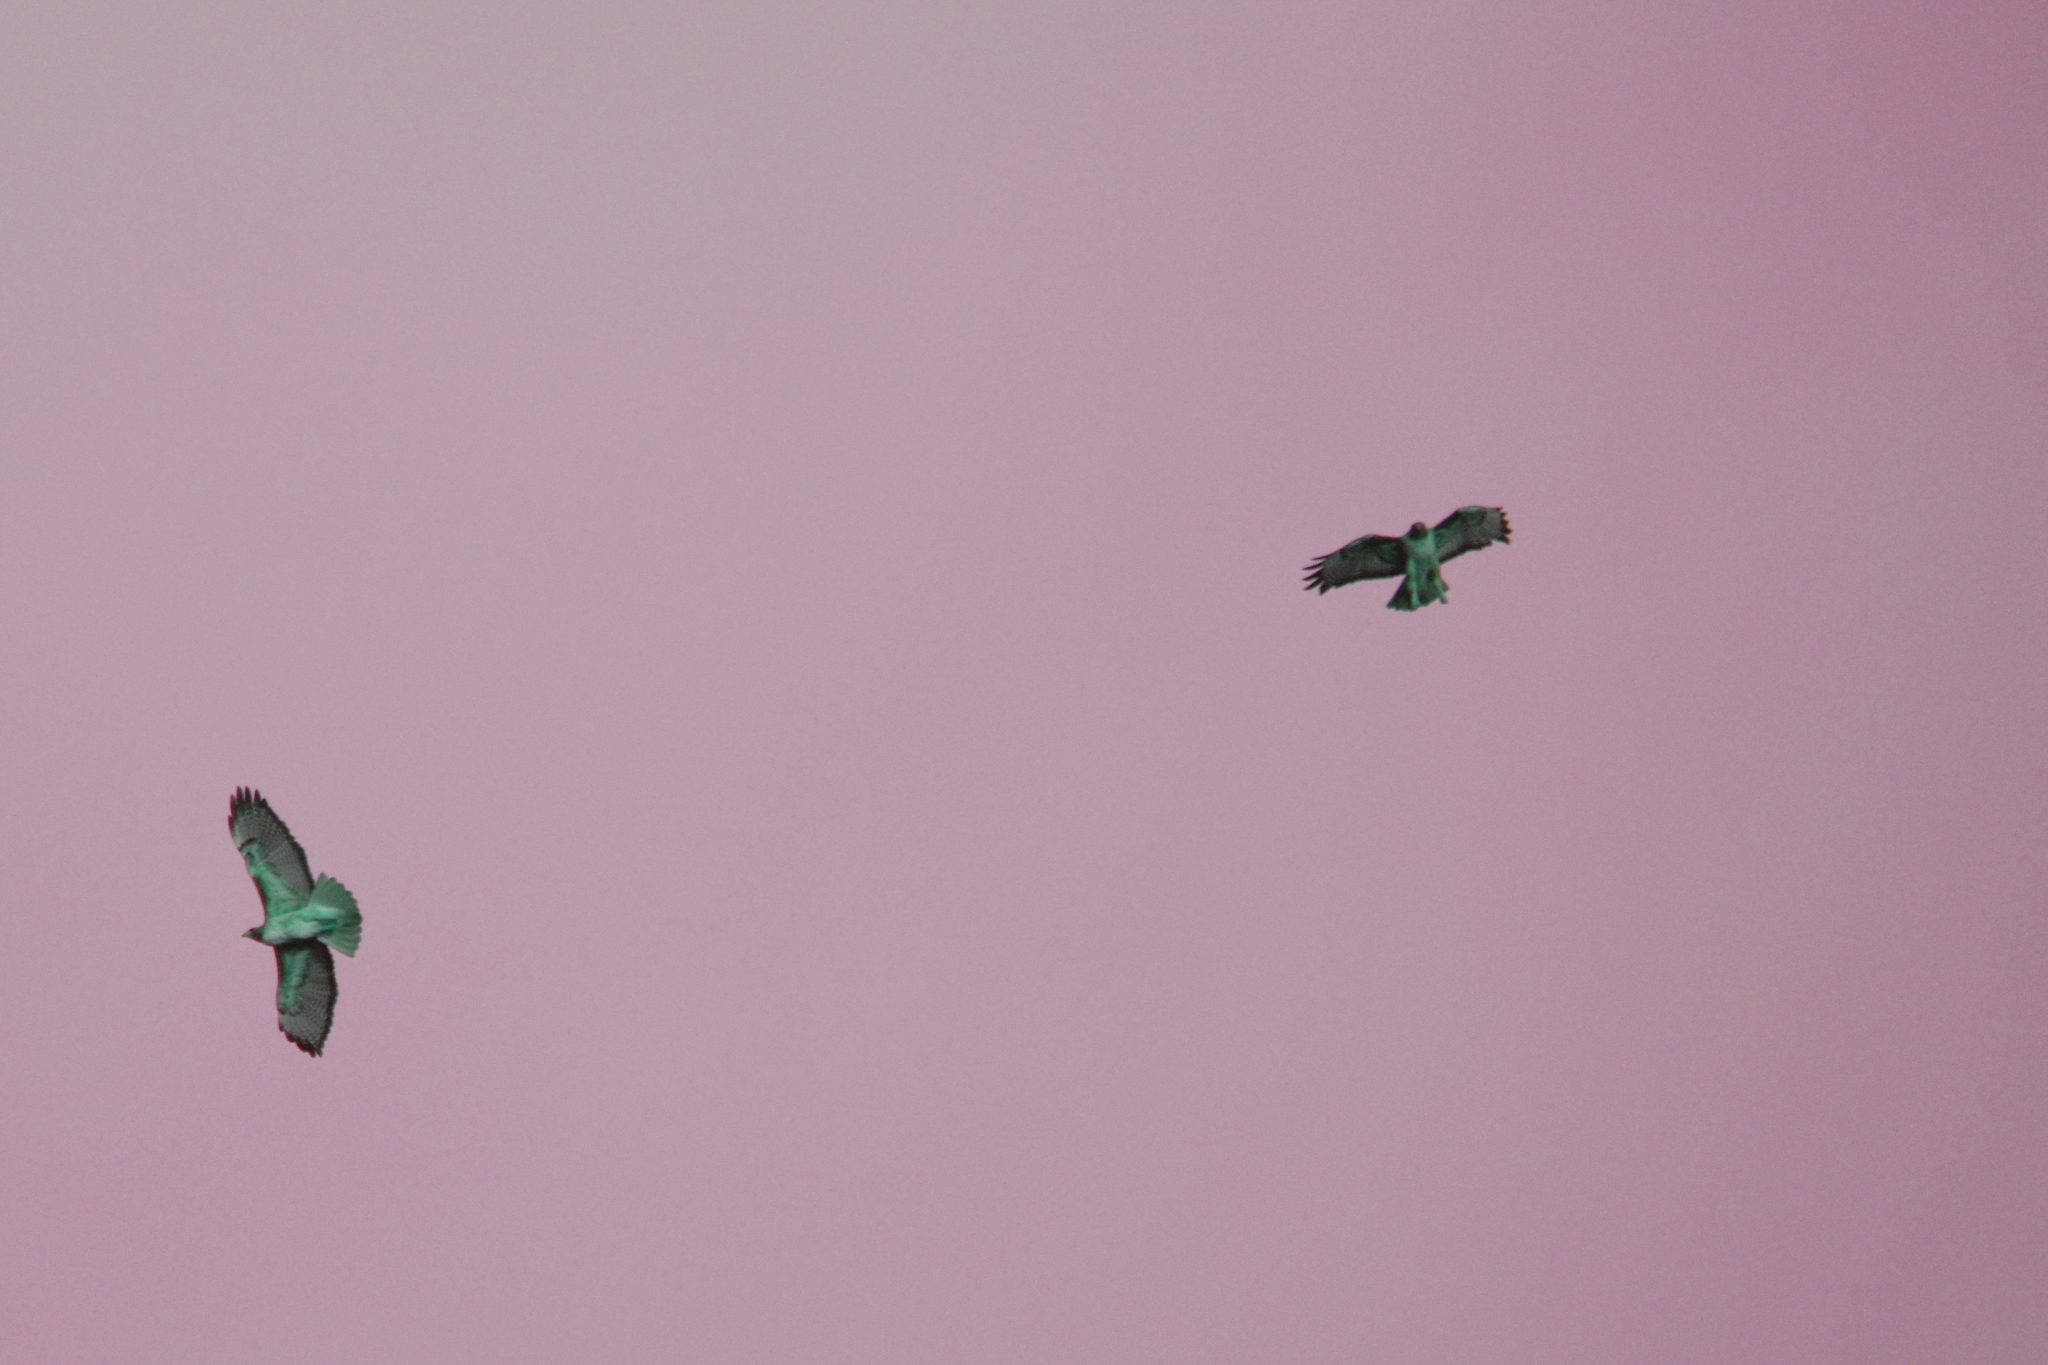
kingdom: Animalia
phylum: Chordata
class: Aves
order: Accipitriformes
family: Accipitridae
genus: Buteo
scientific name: Buteo jamaicensis
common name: Red-tailed hawk
